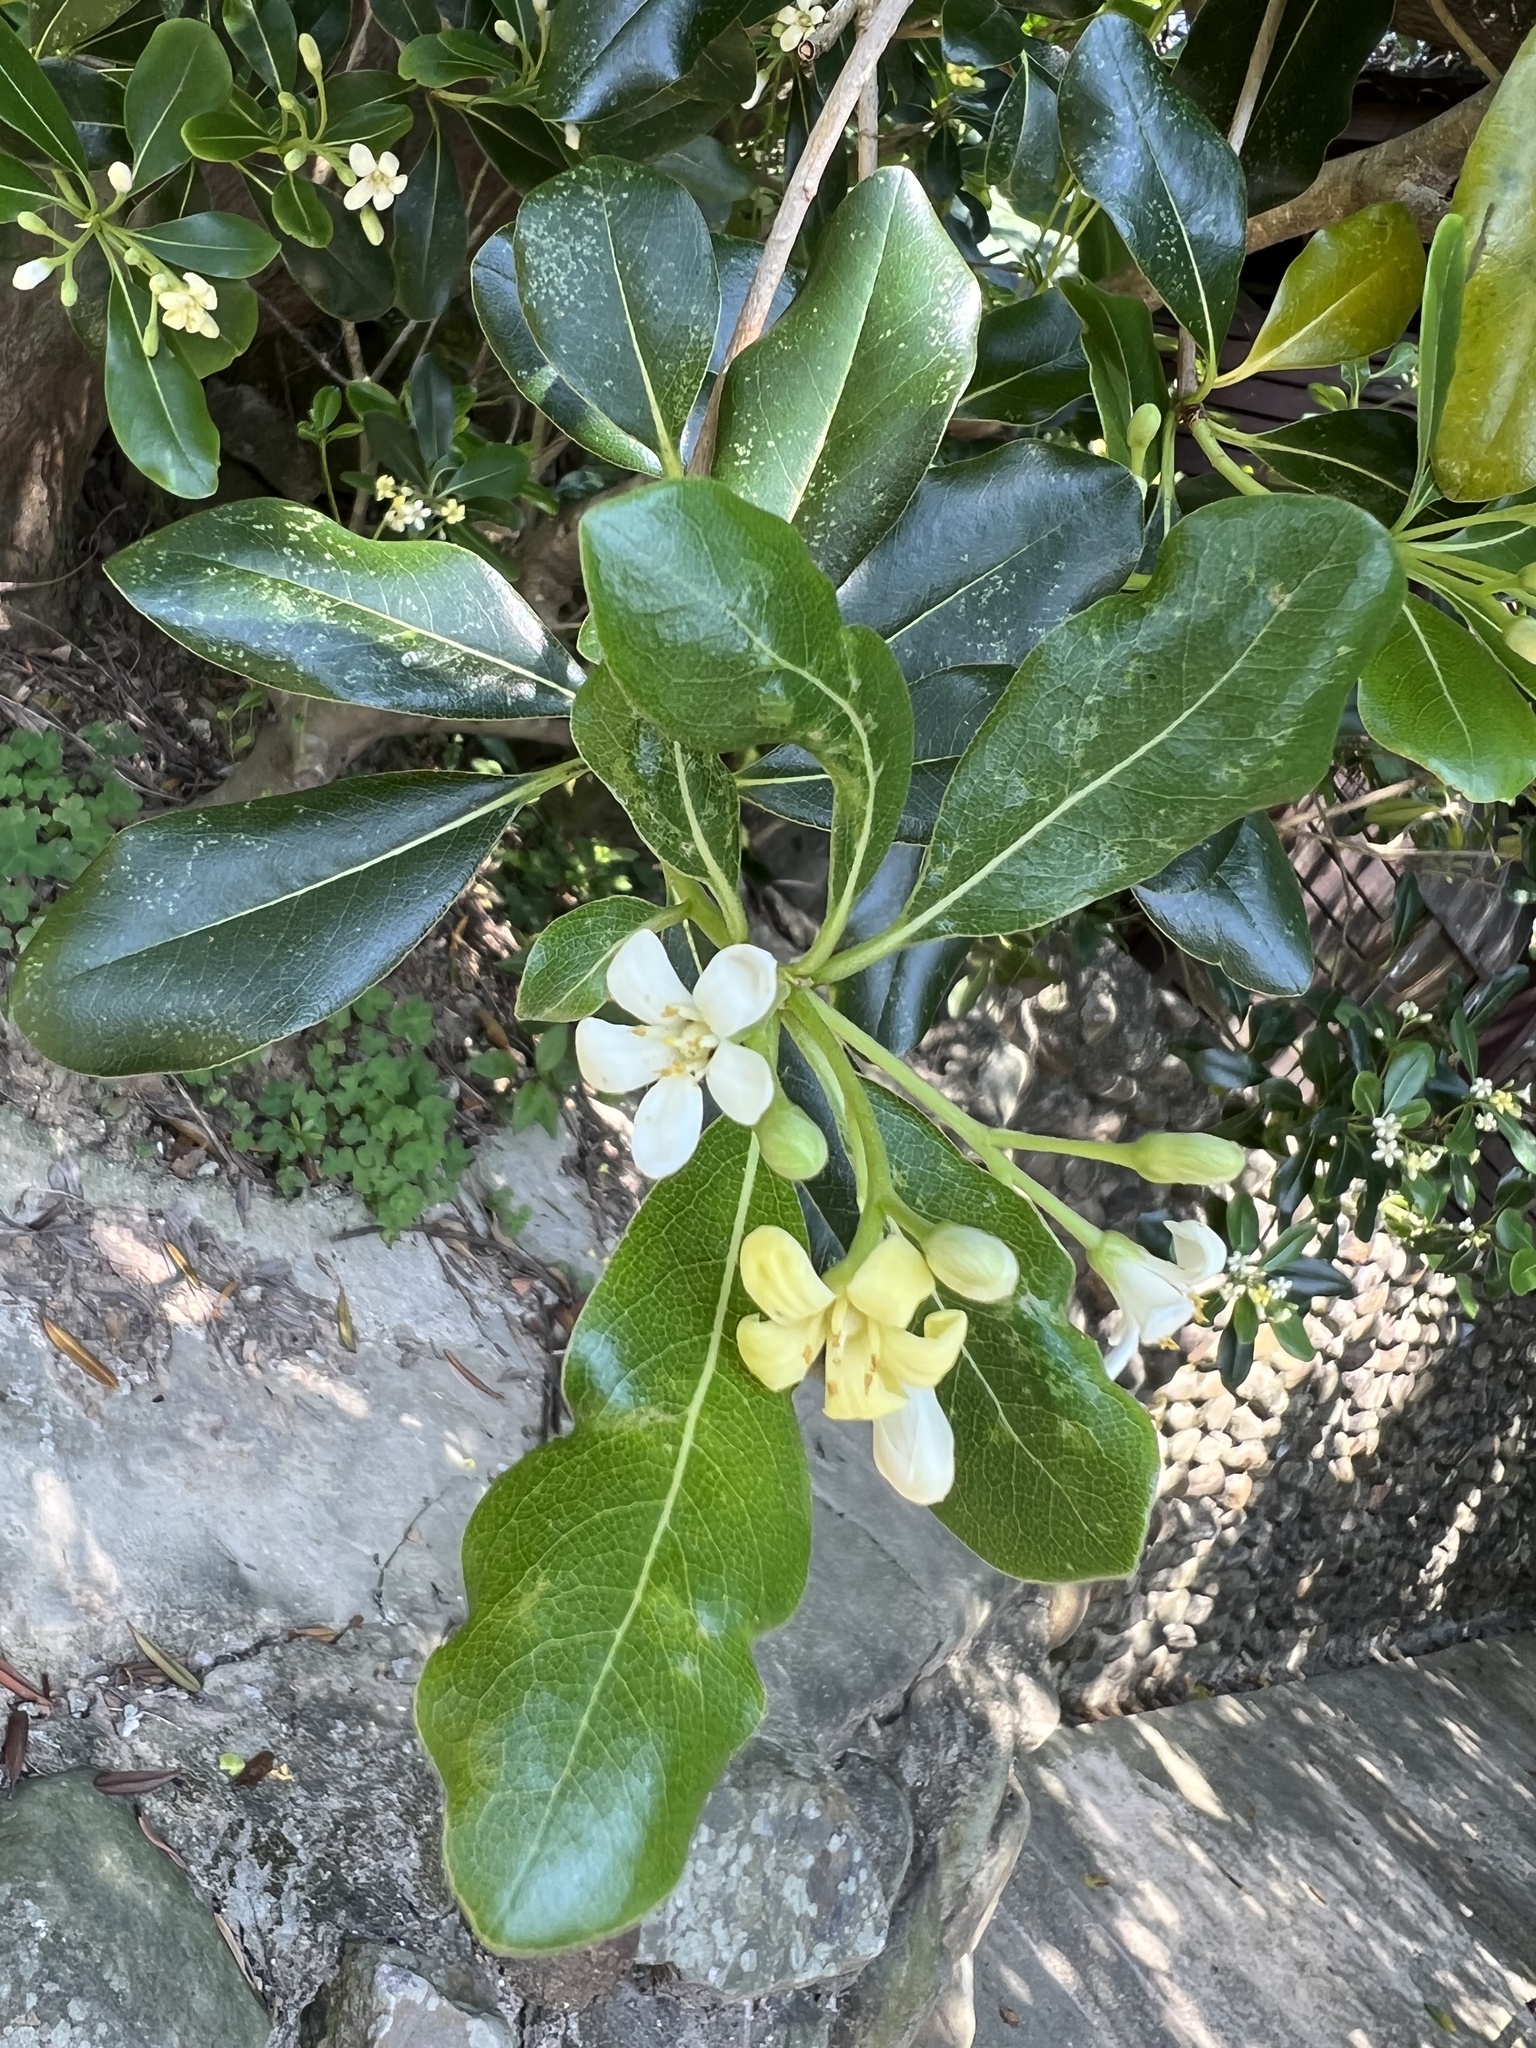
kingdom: Plantae
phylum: Tracheophyta
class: Magnoliopsida
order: Apiales
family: Pittosporaceae
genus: Pittosporum
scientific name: Pittosporum tobira
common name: Japanese cheesewood
